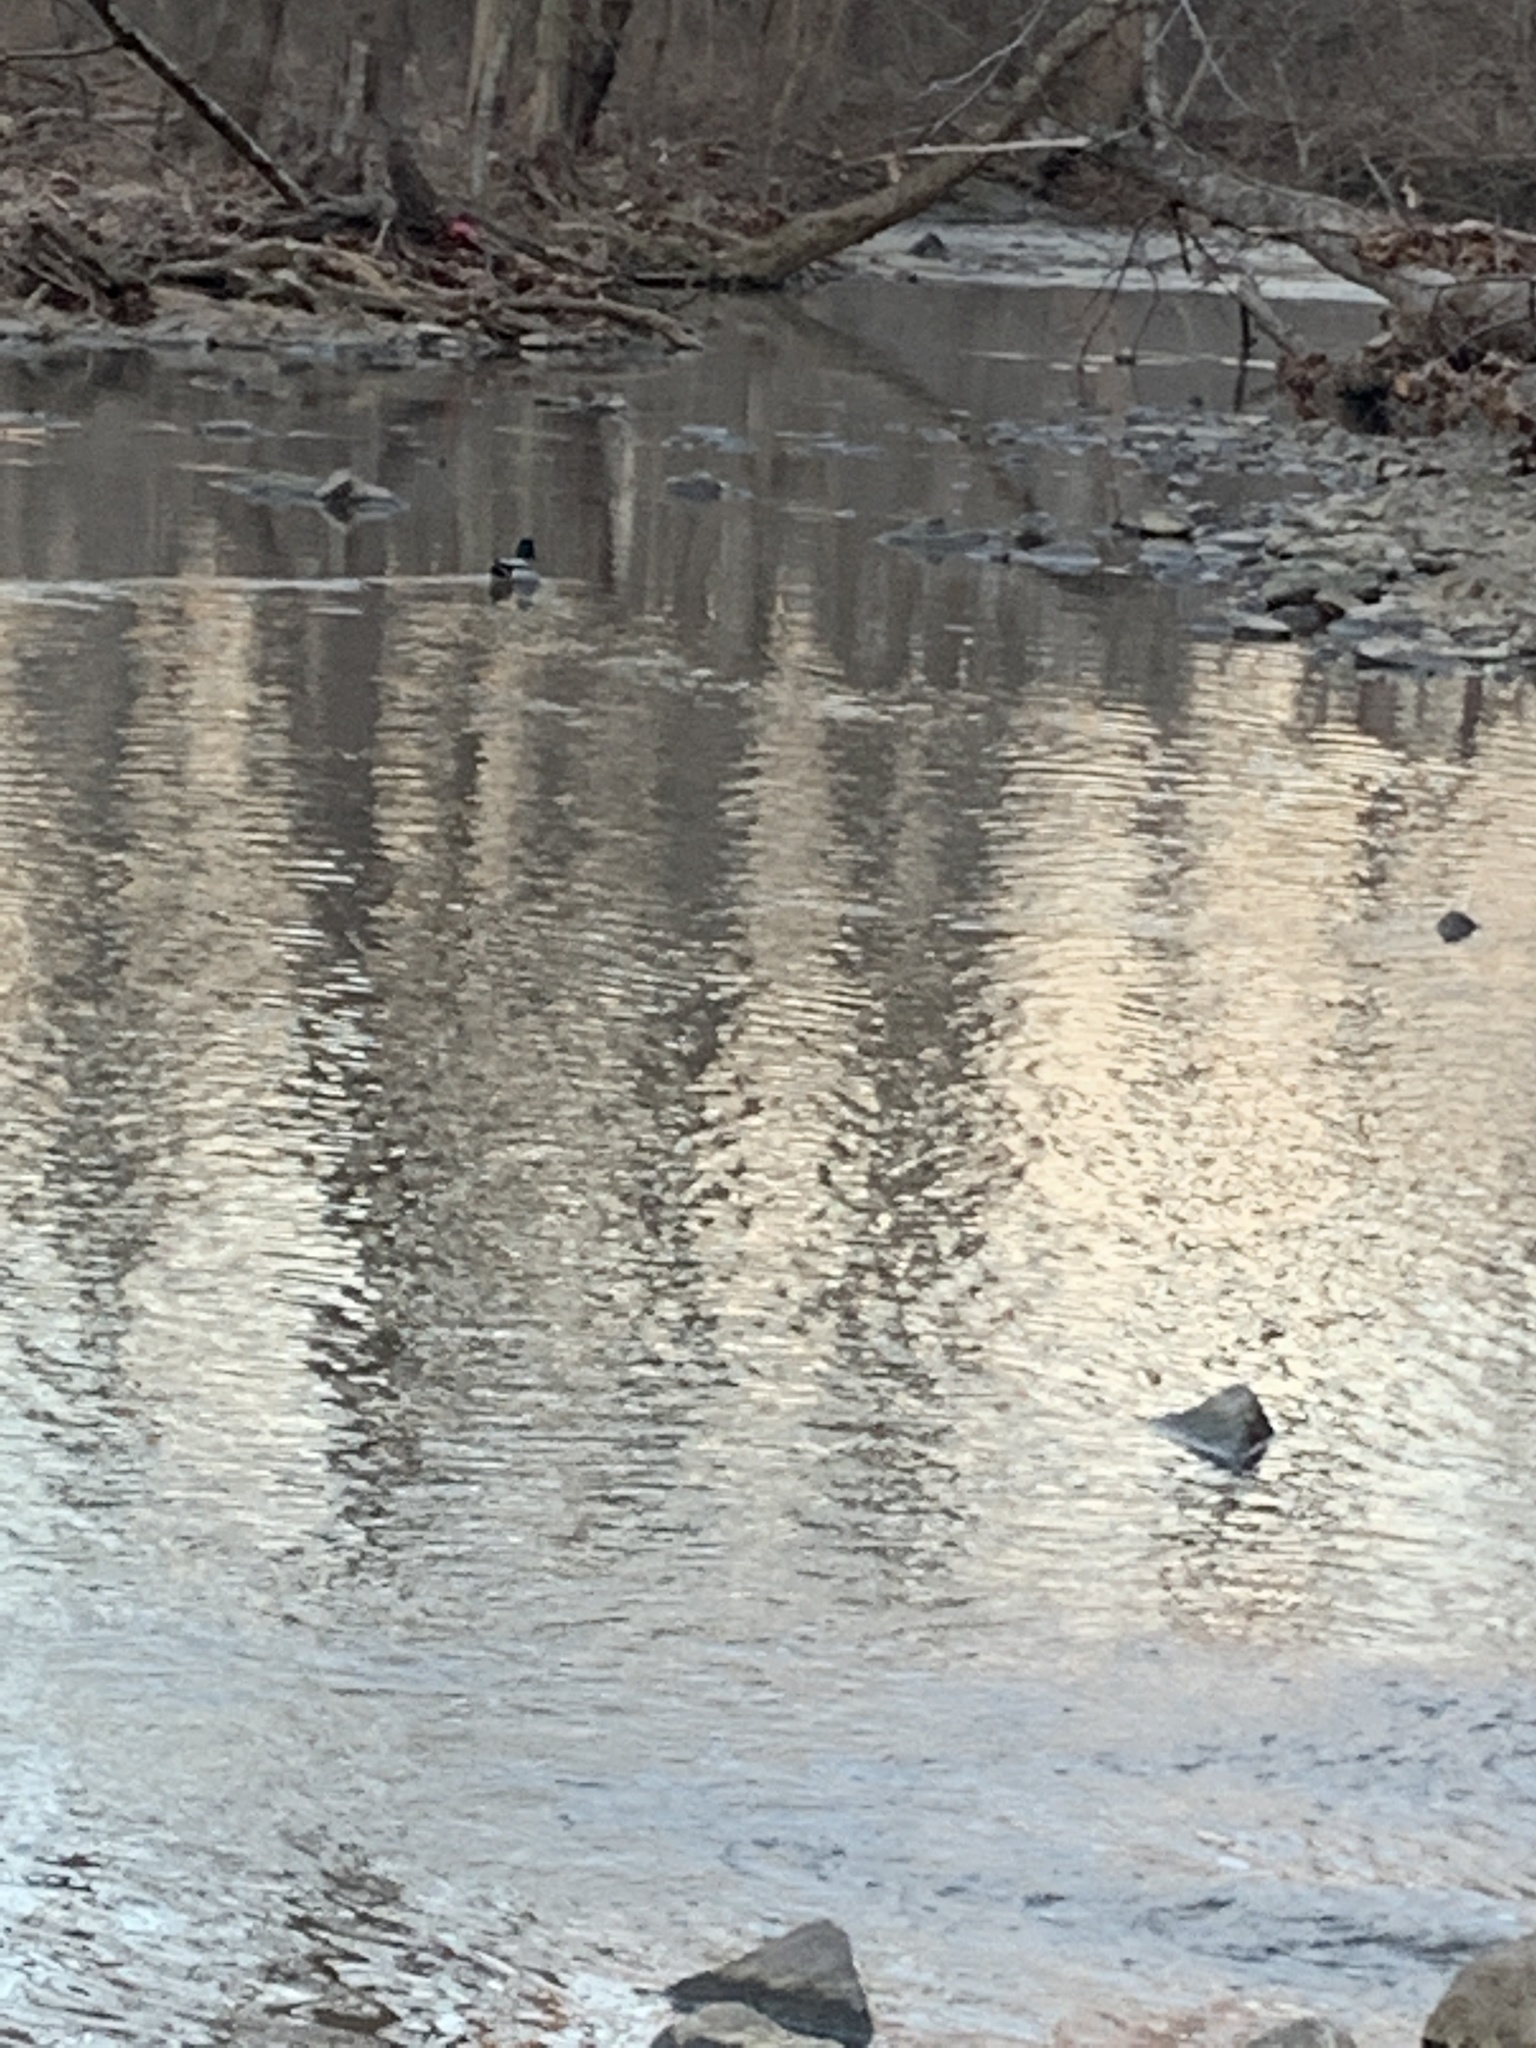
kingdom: Animalia
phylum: Chordata
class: Aves
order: Anseriformes
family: Anatidae
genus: Anas
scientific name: Anas platyrhynchos
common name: Mallard
